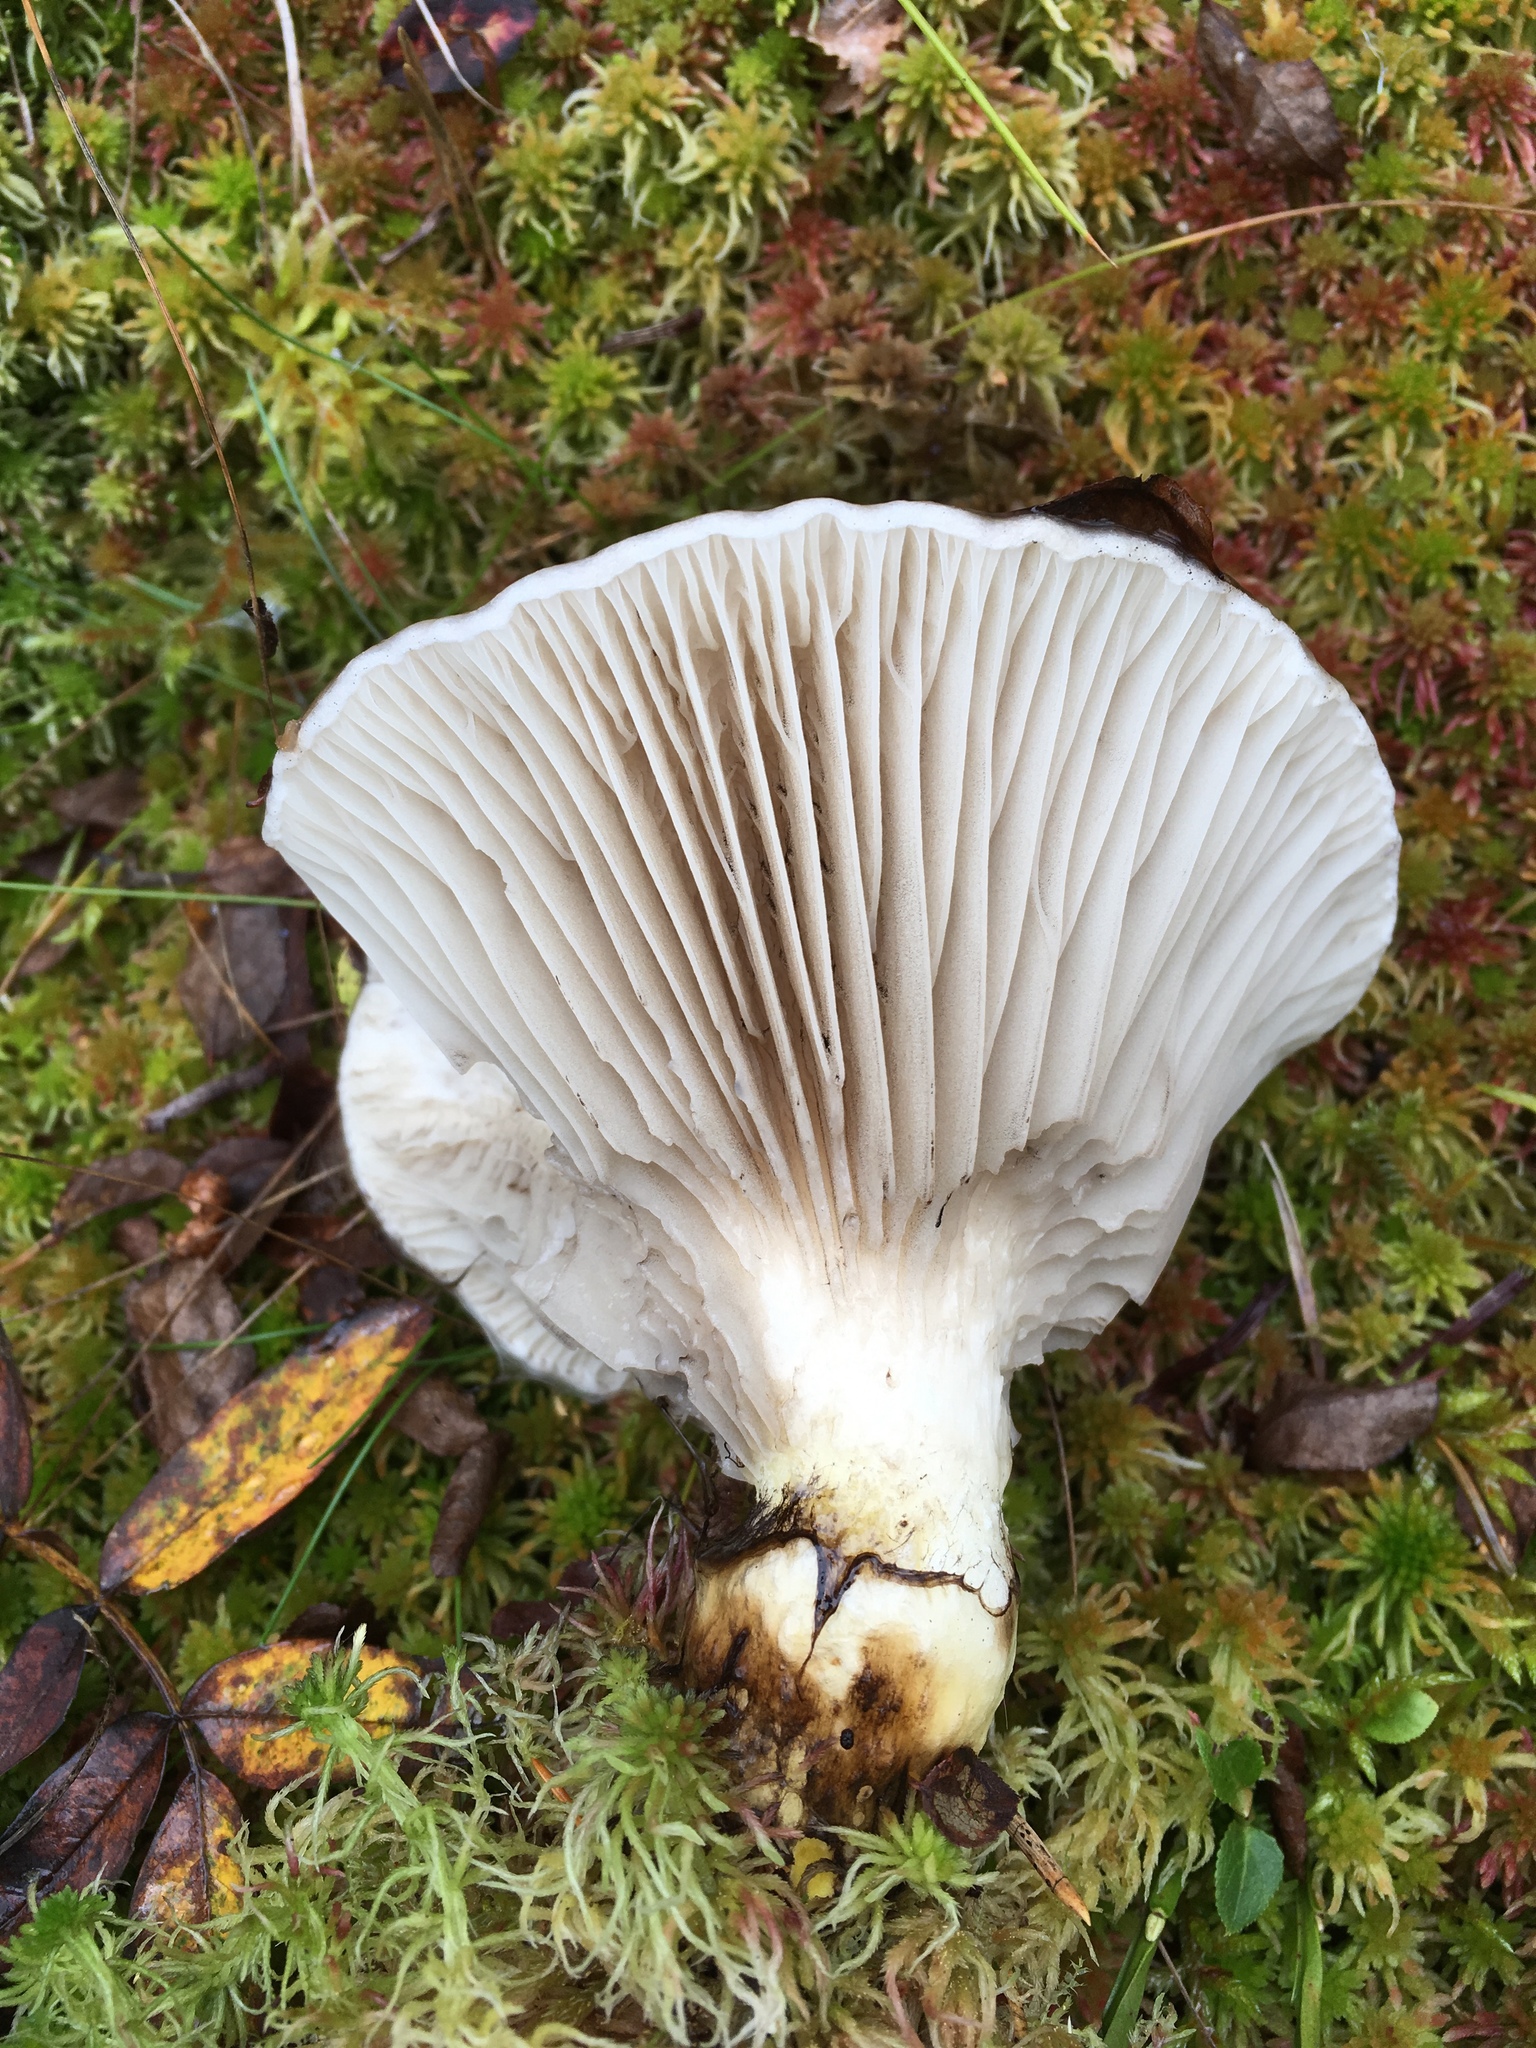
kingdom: Fungi
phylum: Basidiomycota
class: Agaricomycetes
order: Boletales
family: Gomphidiaceae
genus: Gomphidius
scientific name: Gomphidius glutinosus
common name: Slimy spike
